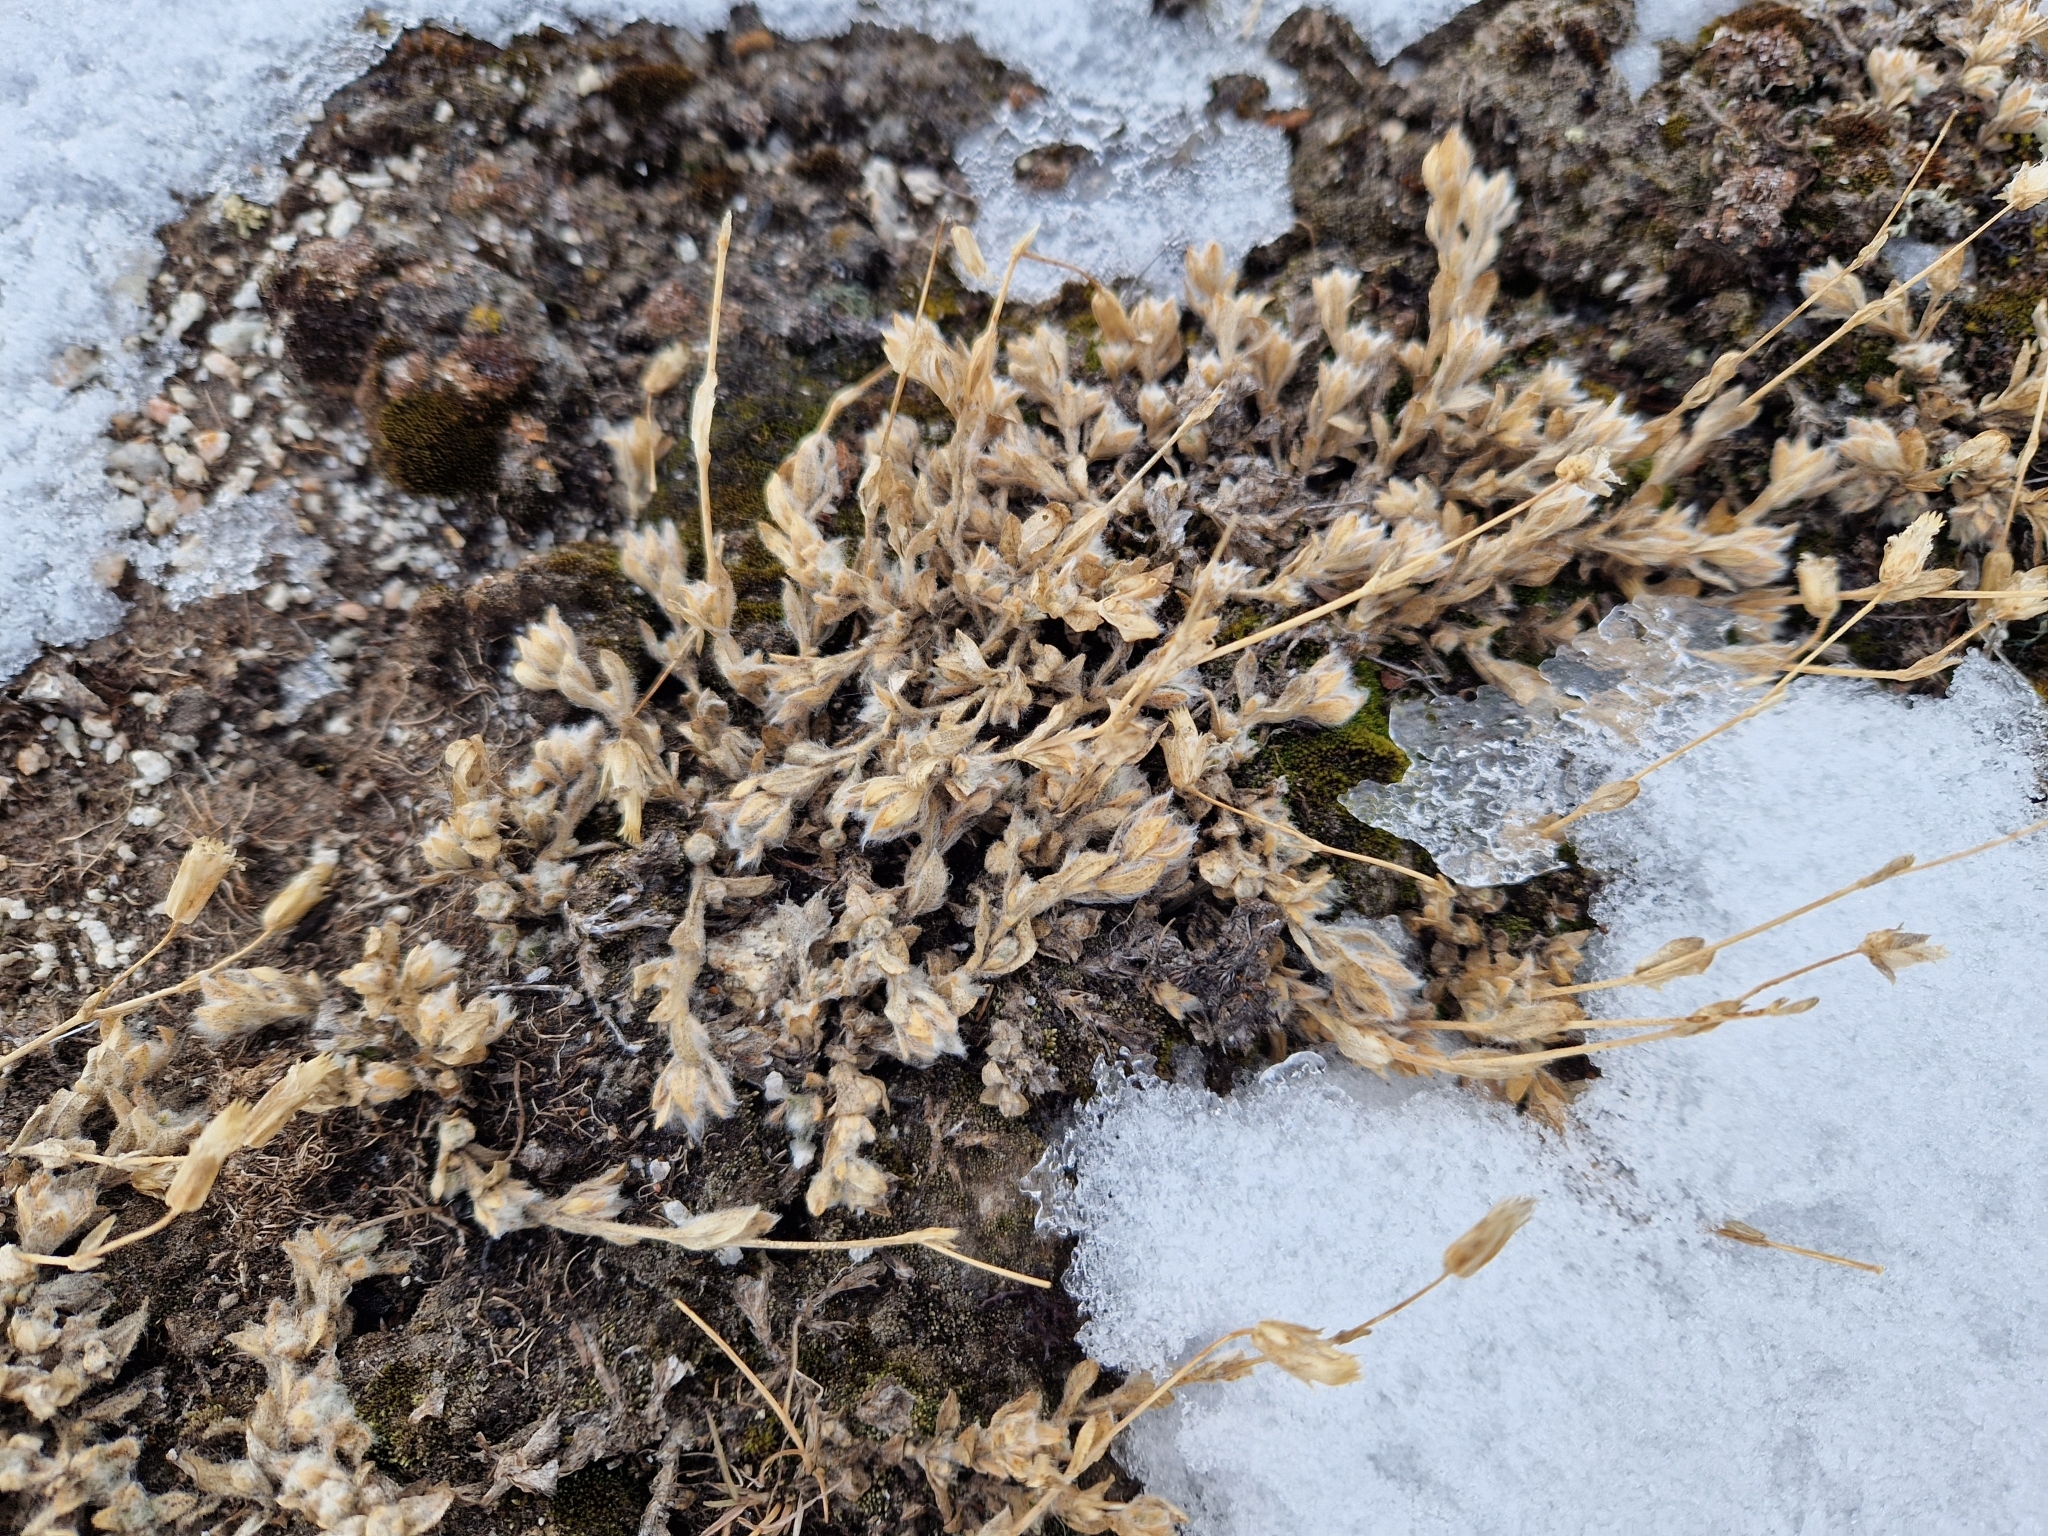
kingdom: Plantae
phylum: Tracheophyta
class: Magnoliopsida
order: Caryophyllales
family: Caryophyllaceae
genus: Cerastium
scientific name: Cerastium alpinum
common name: Alpine mouse-ear
